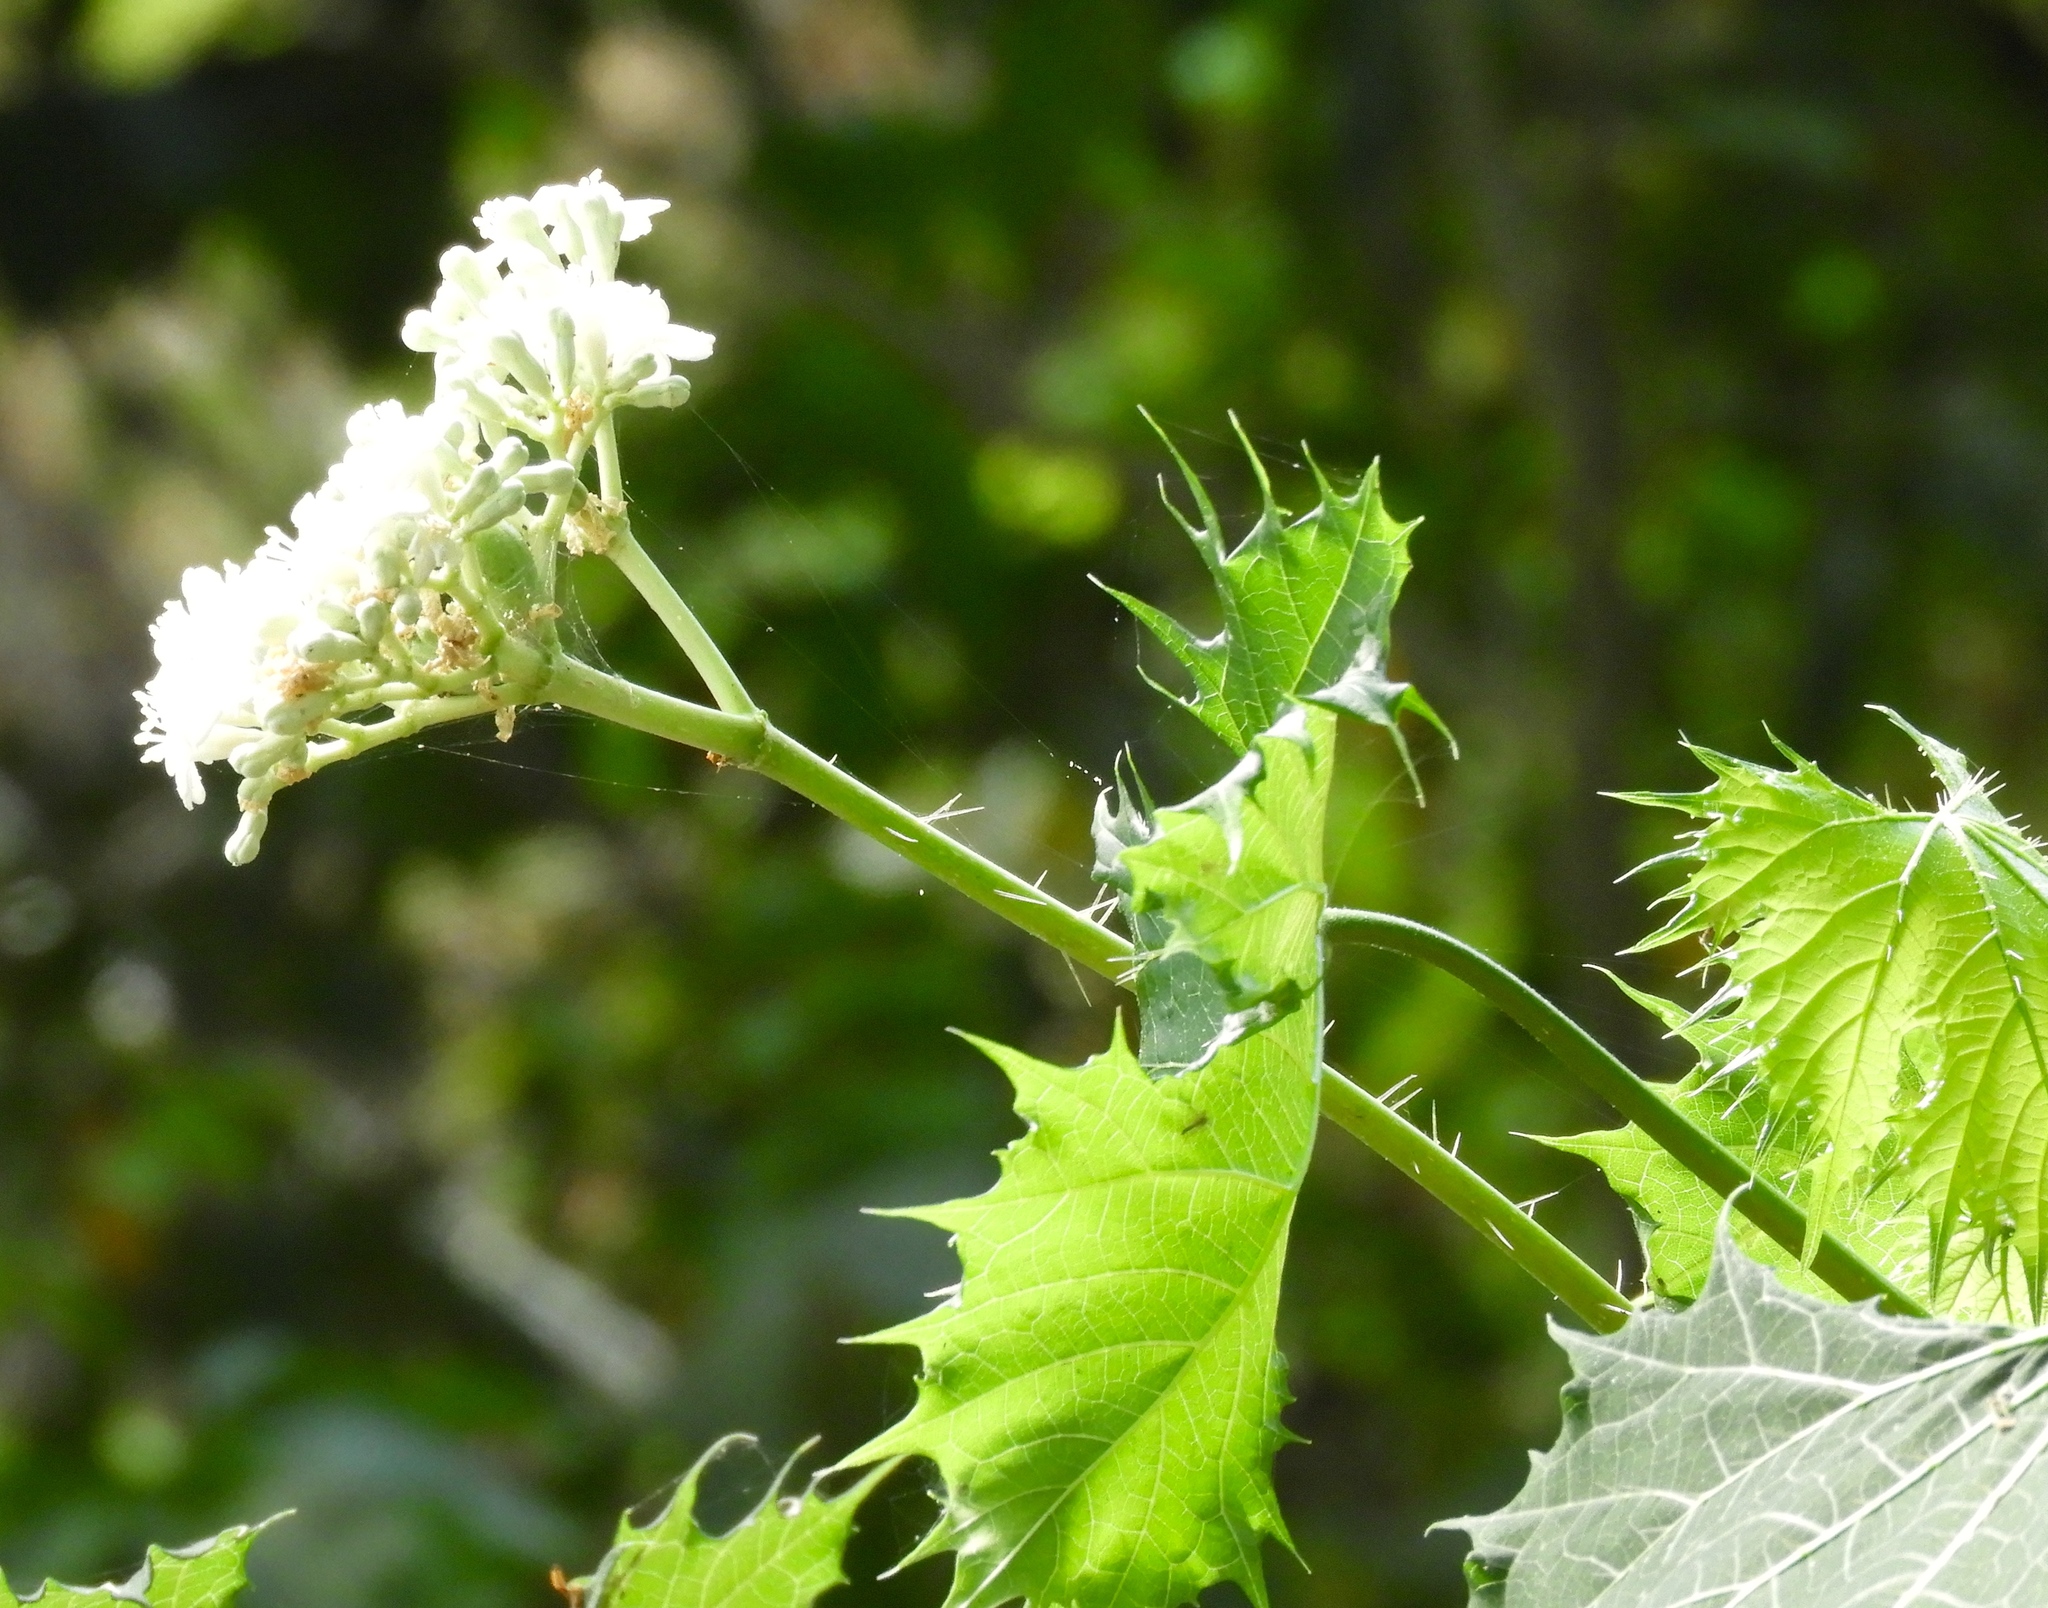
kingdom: Plantae
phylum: Tracheophyta
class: Magnoliopsida
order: Malpighiales
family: Euphorbiaceae
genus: Cnidoscolus
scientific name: Cnidoscolus aconitifolius
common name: Cabbage-star
